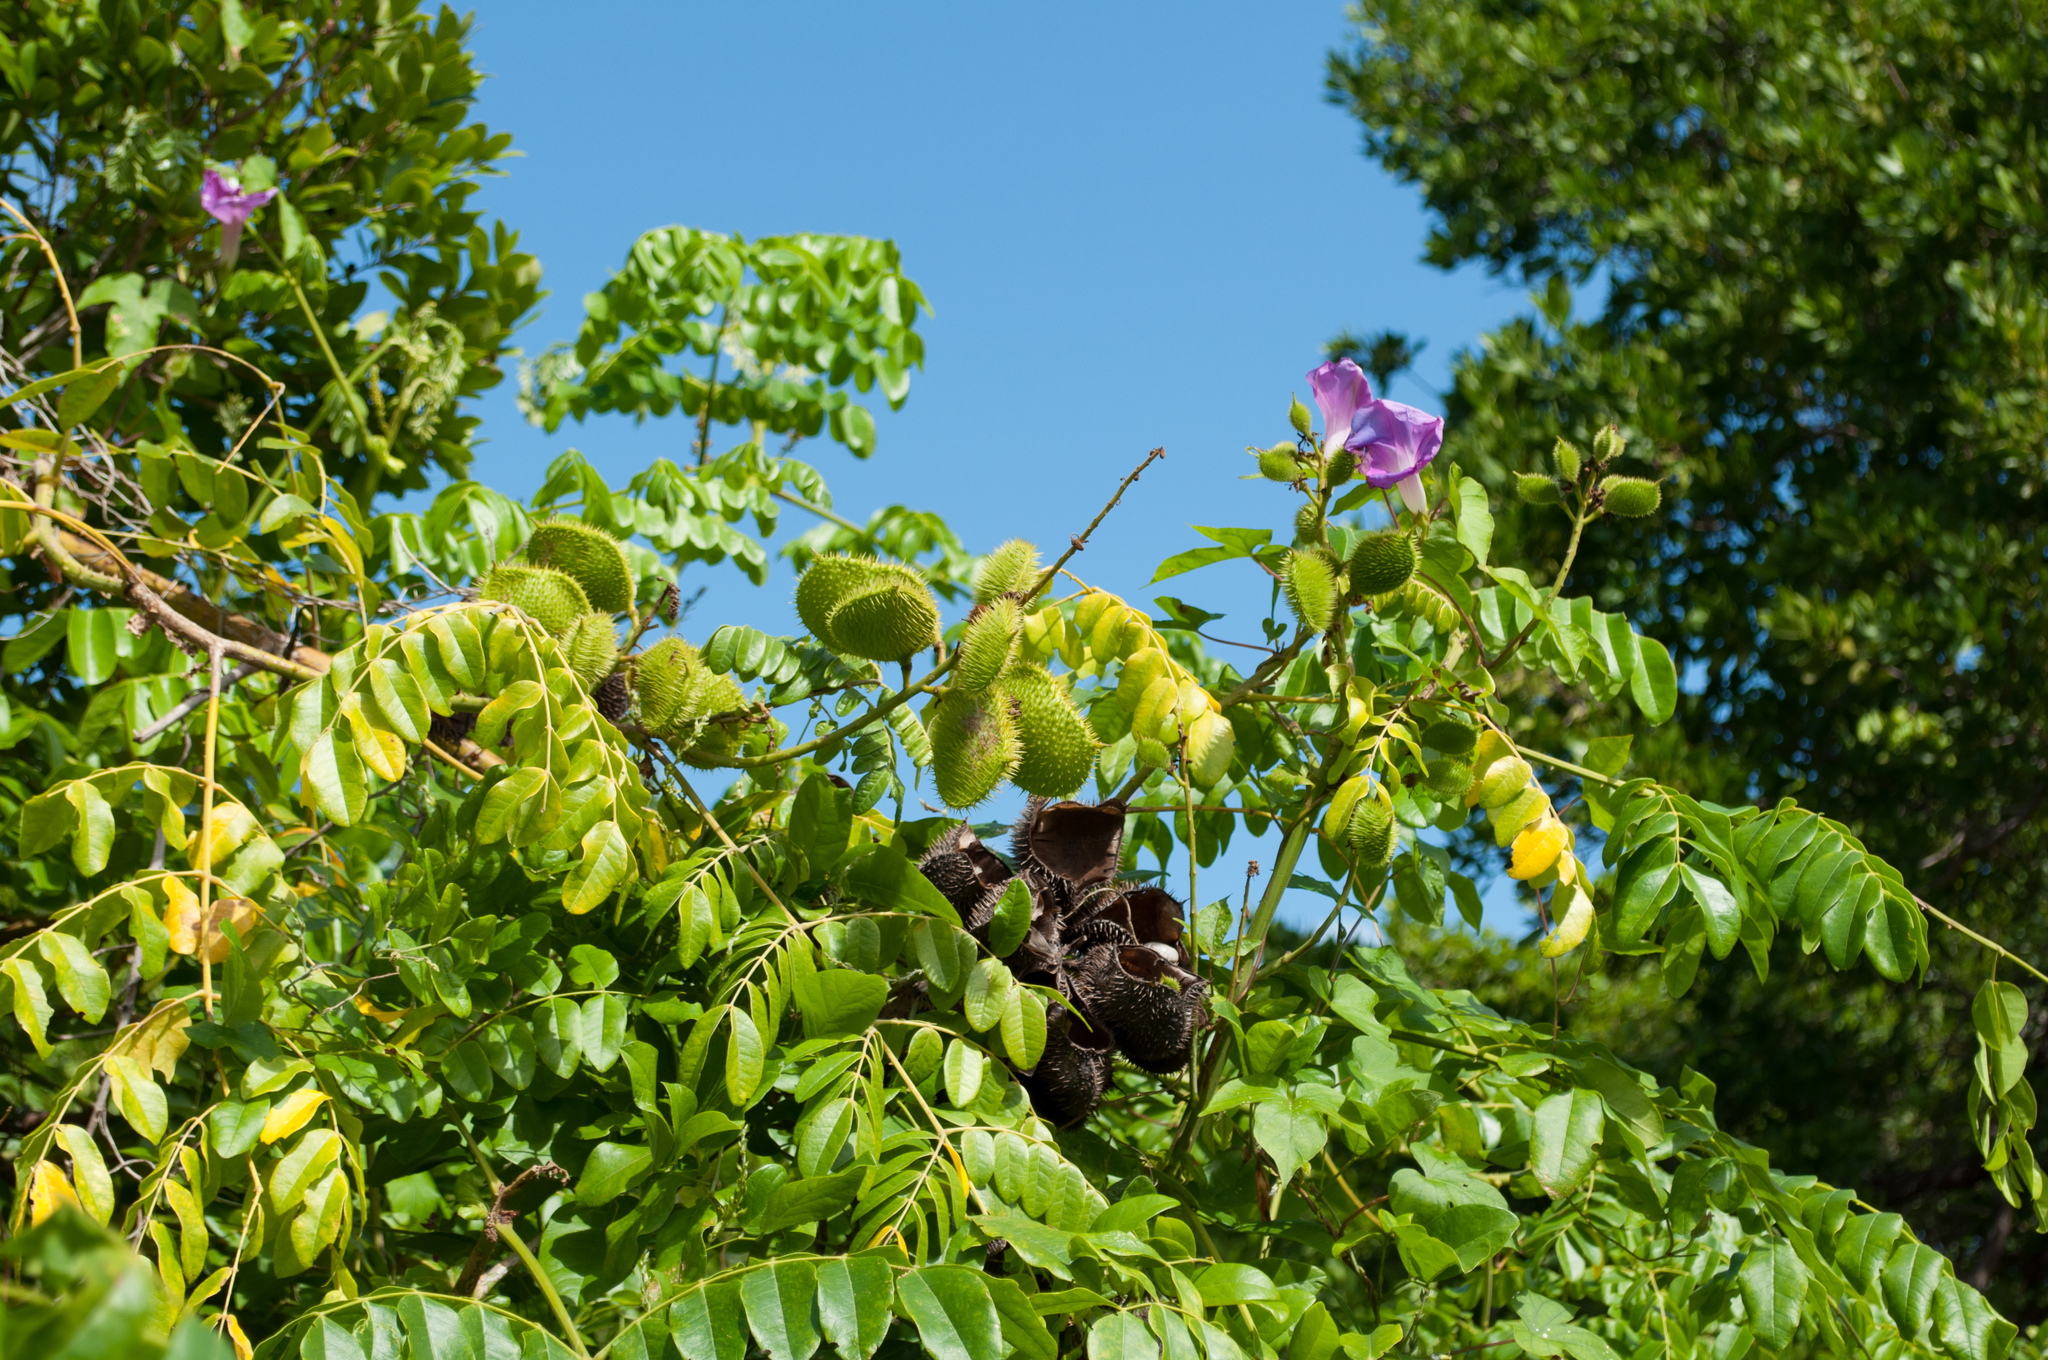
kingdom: Plantae
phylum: Tracheophyta
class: Magnoliopsida
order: Fabales
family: Fabaceae
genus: Guilandina
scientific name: Guilandina bonduc
